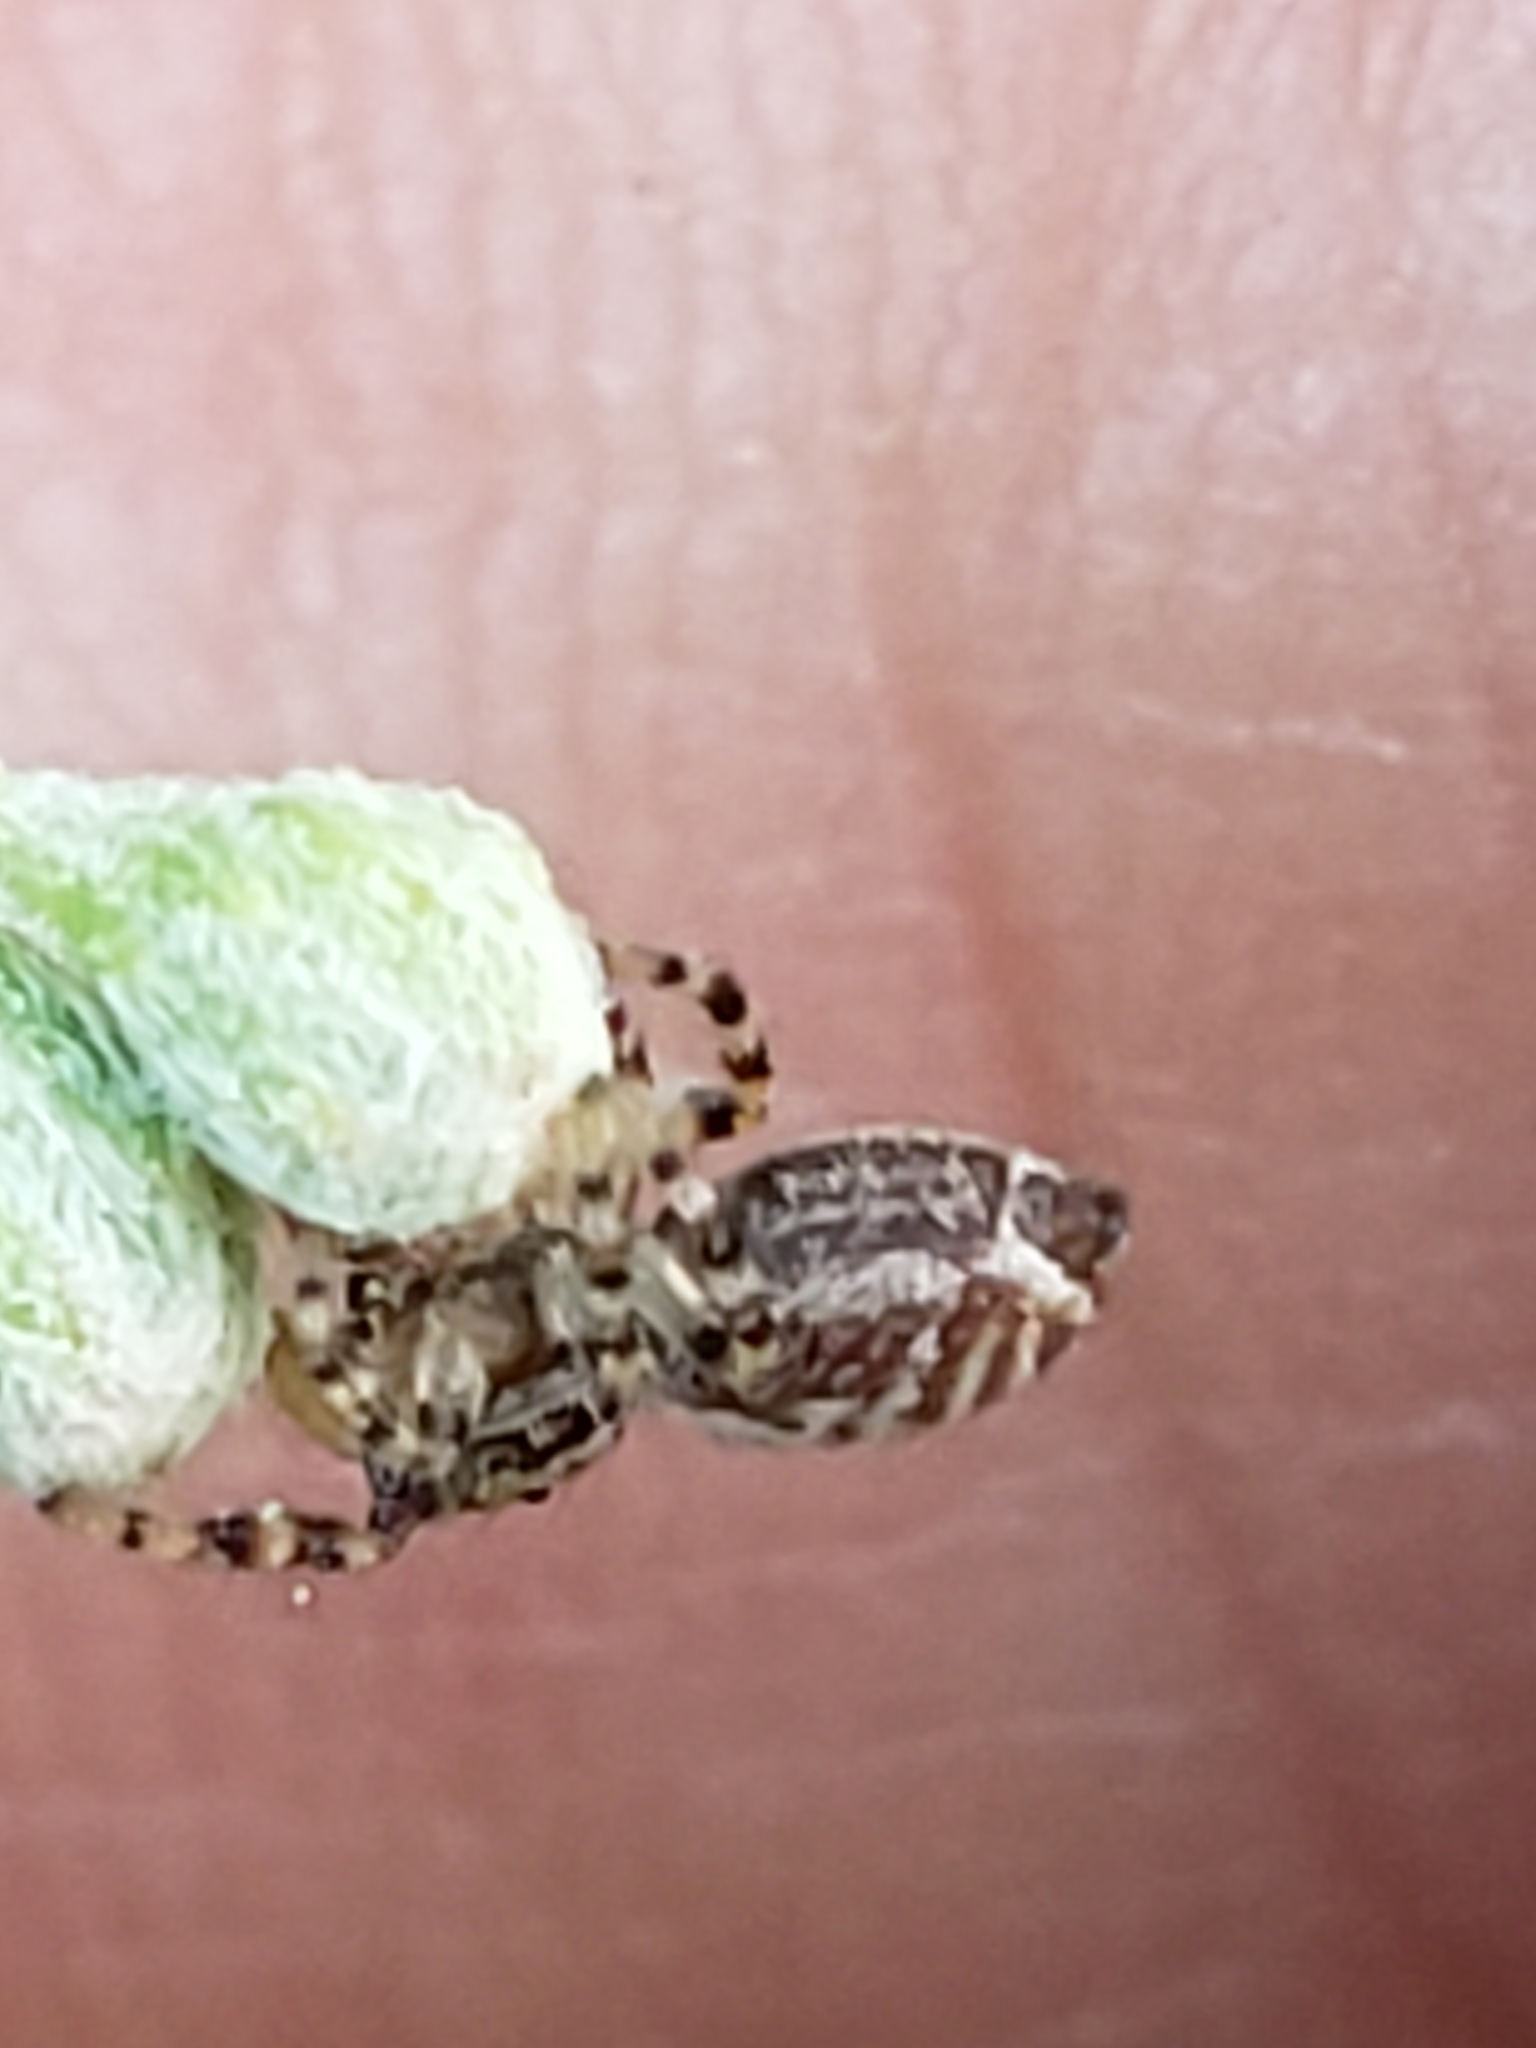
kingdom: Animalia
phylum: Arthropoda
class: Arachnida
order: Araneae
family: Salticidae
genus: Pelegrina
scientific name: Pelegrina galathea
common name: Jumping spiders
